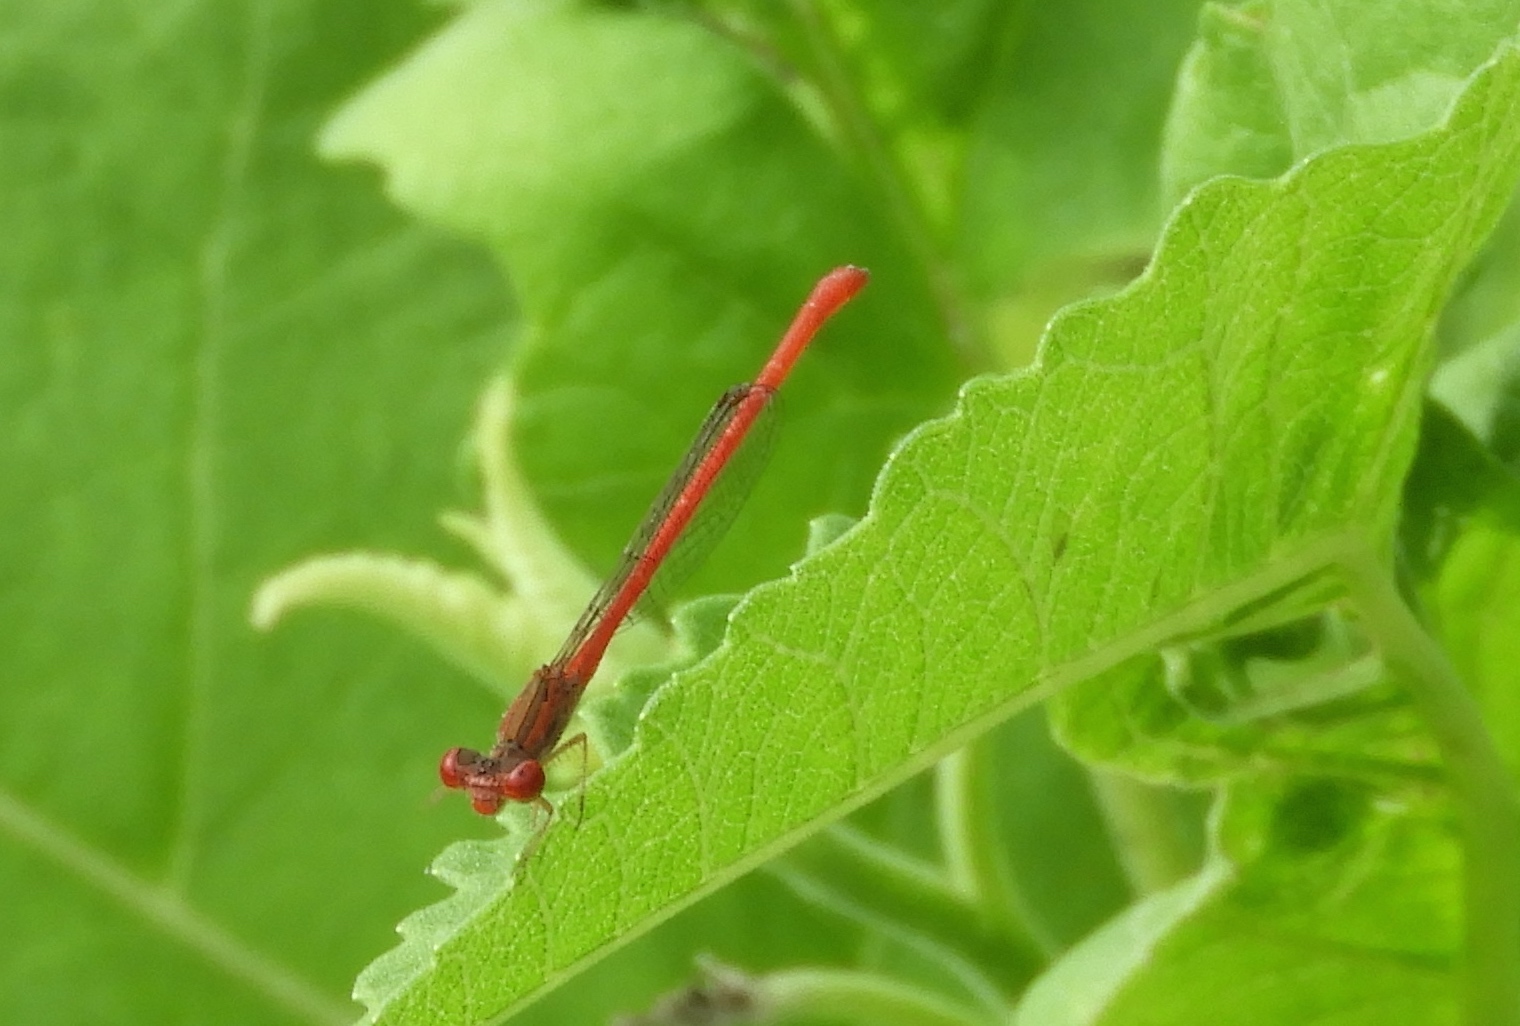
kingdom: Animalia
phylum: Arthropoda
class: Insecta
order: Odonata
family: Coenagrionidae
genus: Telebasis
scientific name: Telebasis salva
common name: Desert firetail
